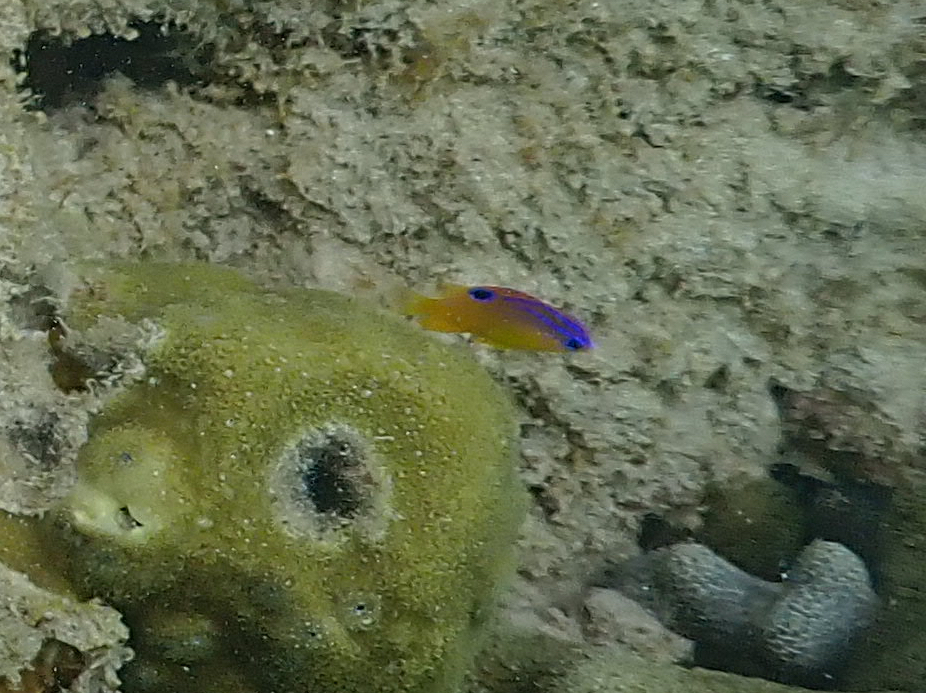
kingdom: Animalia
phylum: Chordata
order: Perciformes
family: Pomacentridae
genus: Stegastes
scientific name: Stegastes diencaeus
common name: Longfin damselfish
